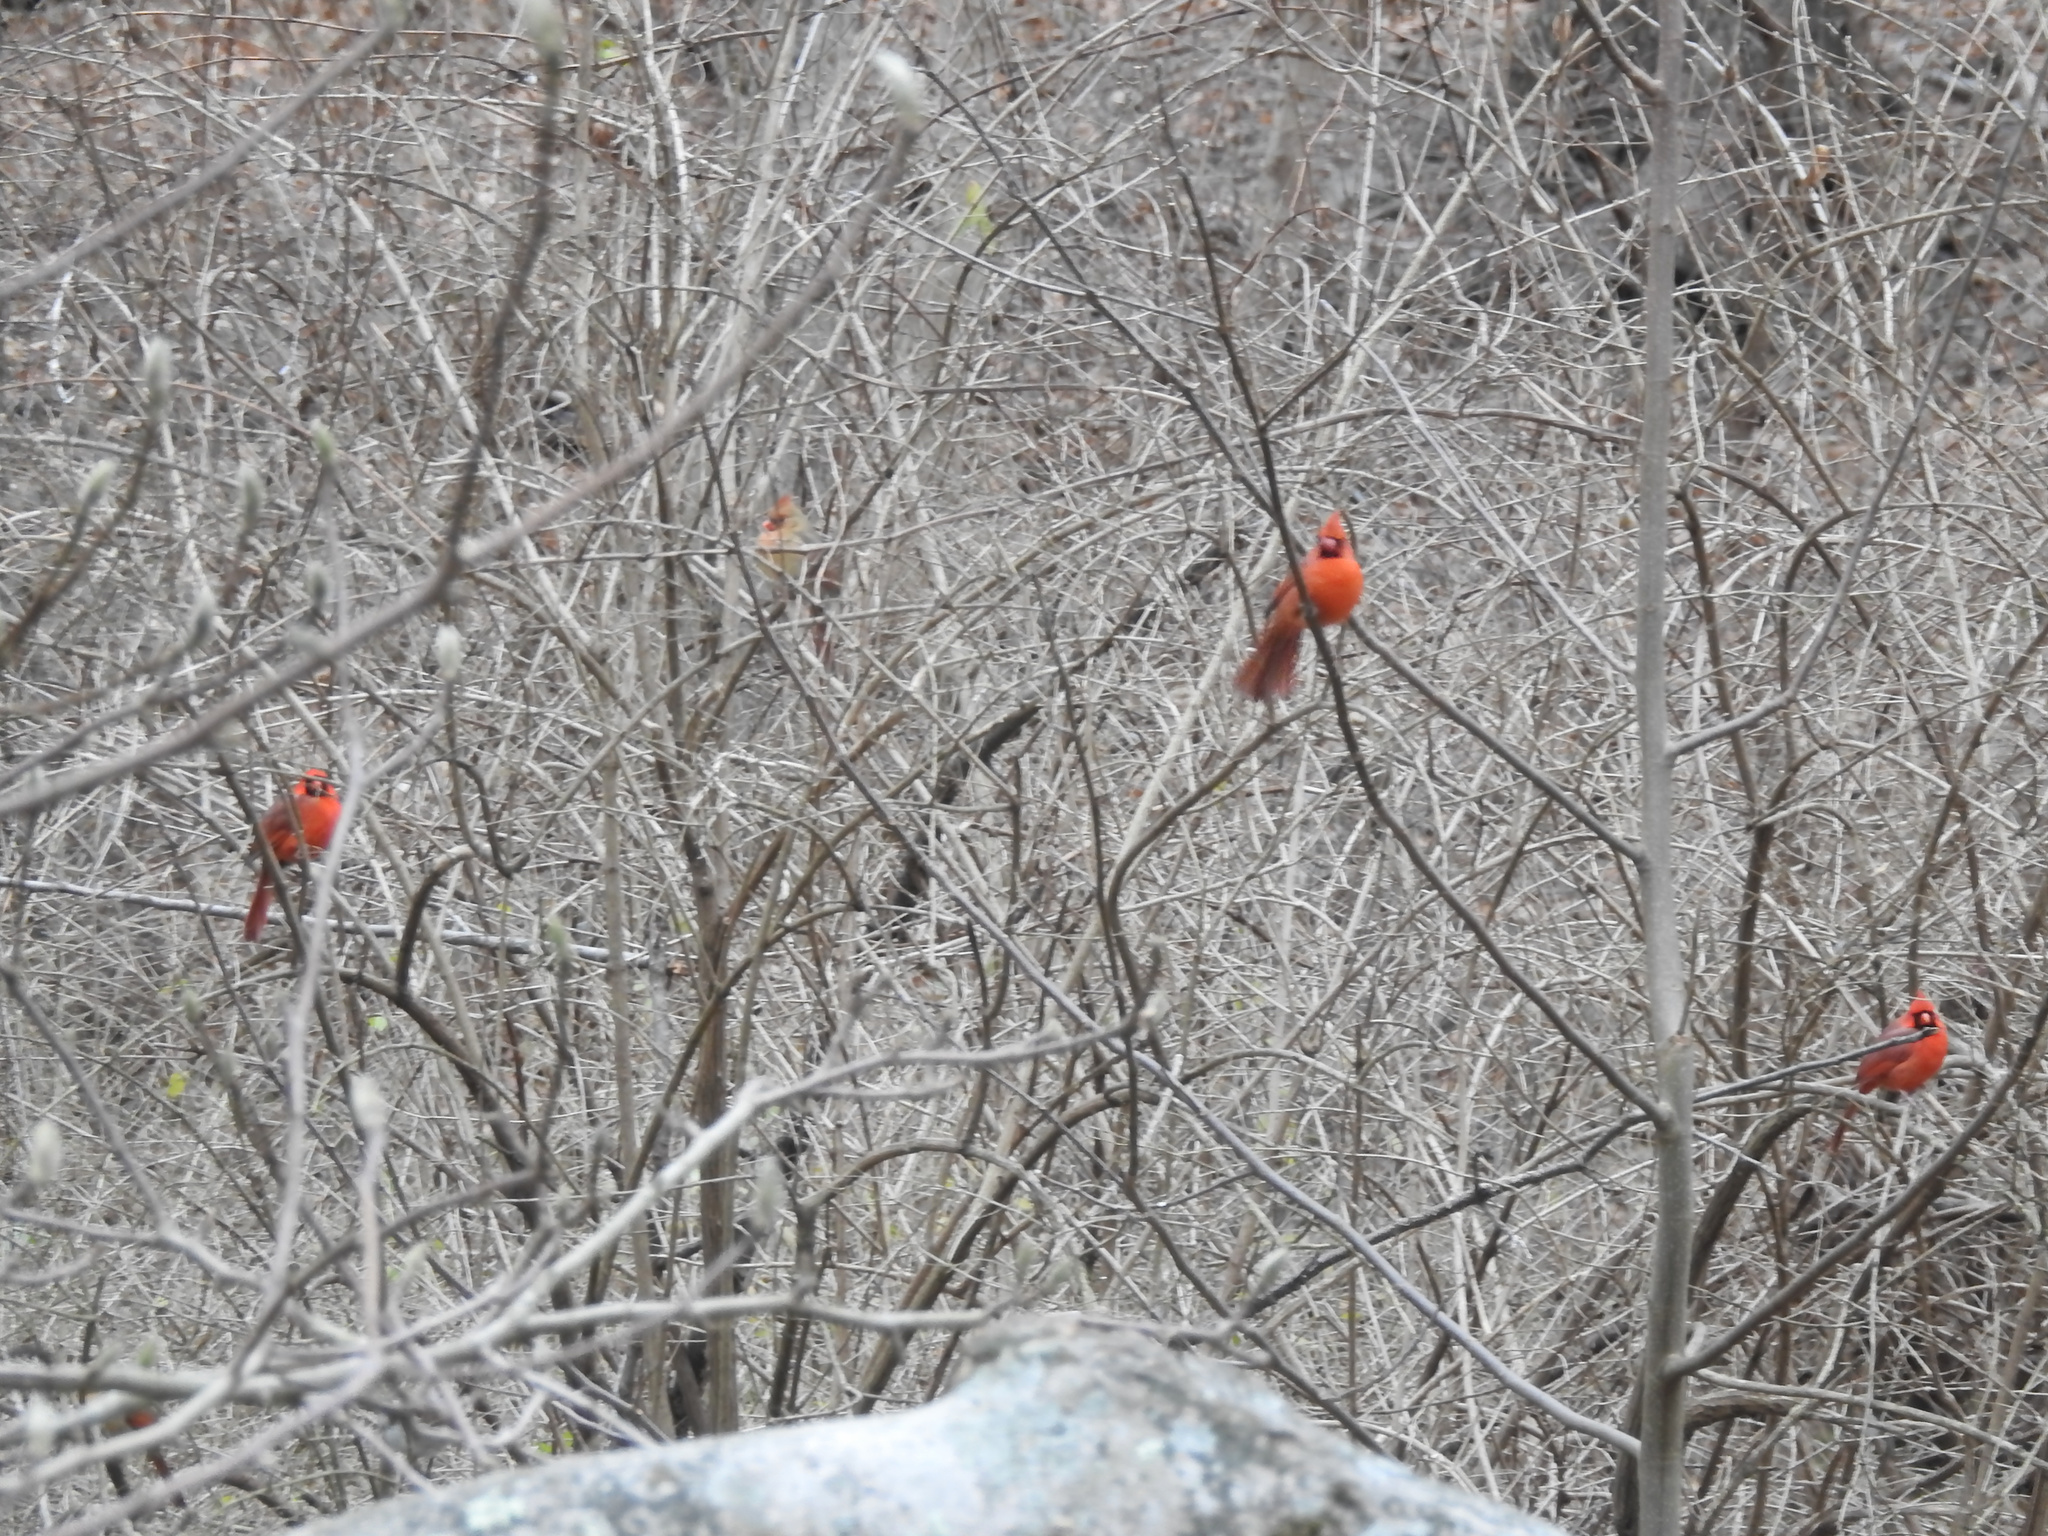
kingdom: Animalia
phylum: Chordata
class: Aves
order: Passeriformes
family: Cardinalidae
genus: Cardinalis
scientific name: Cardinalis cardinalis
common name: Northern cardinal
